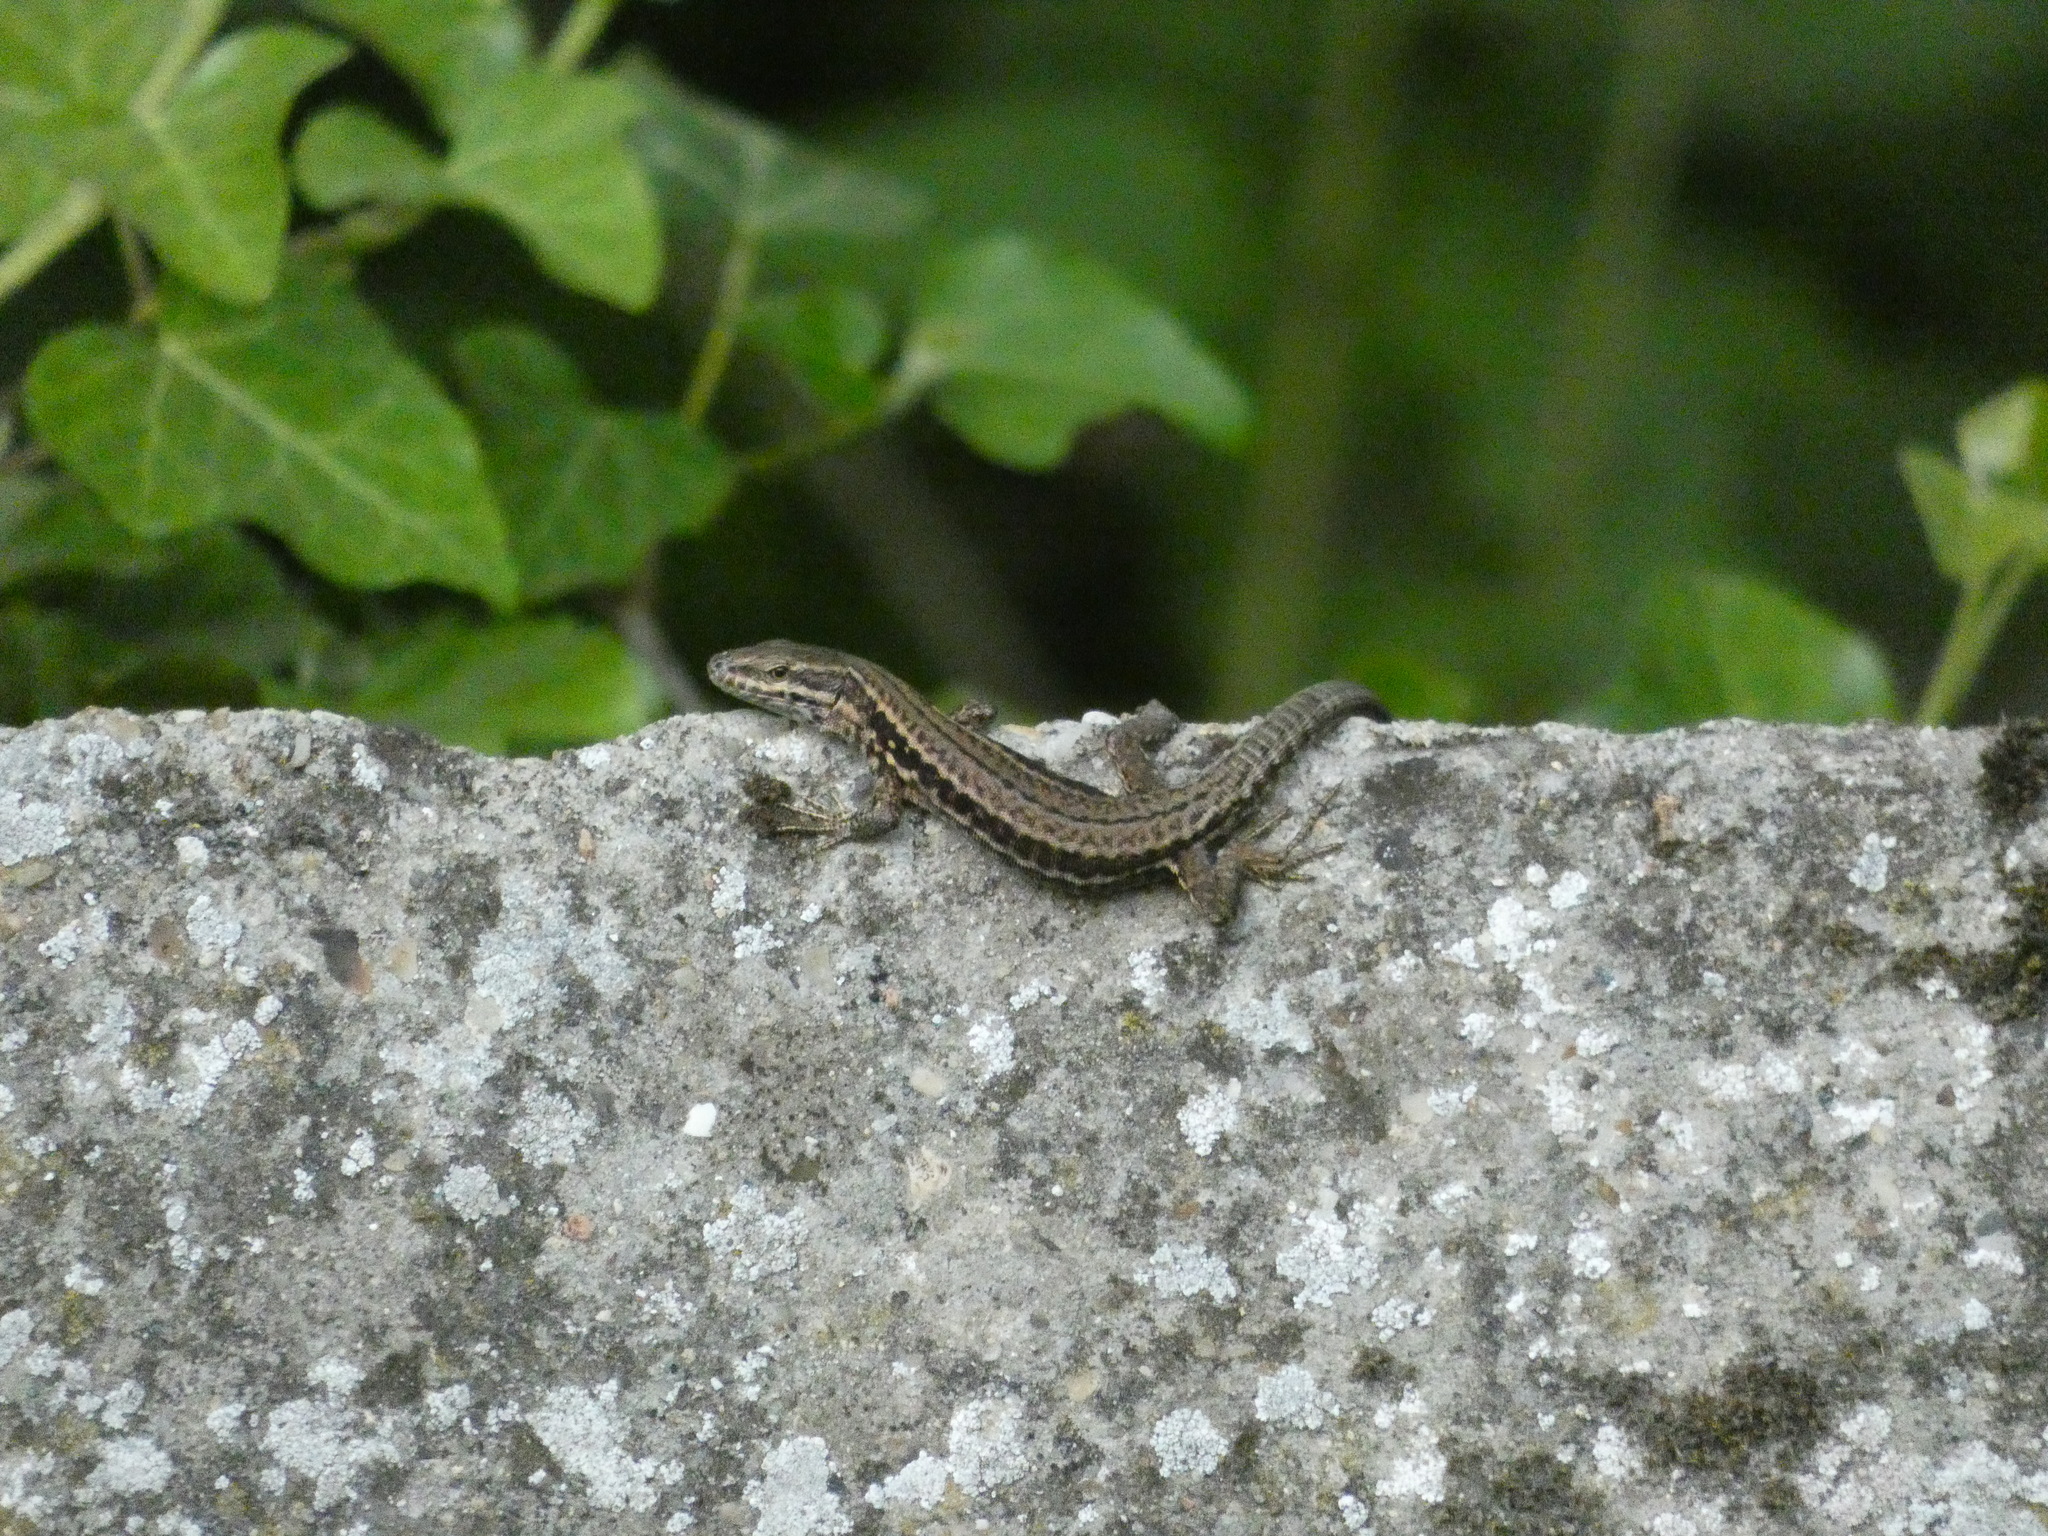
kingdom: Animalia
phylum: Chordata
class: Squamata
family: Lacertidae
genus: Podarcis
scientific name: Podarcis muralis
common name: Common wall lizard
